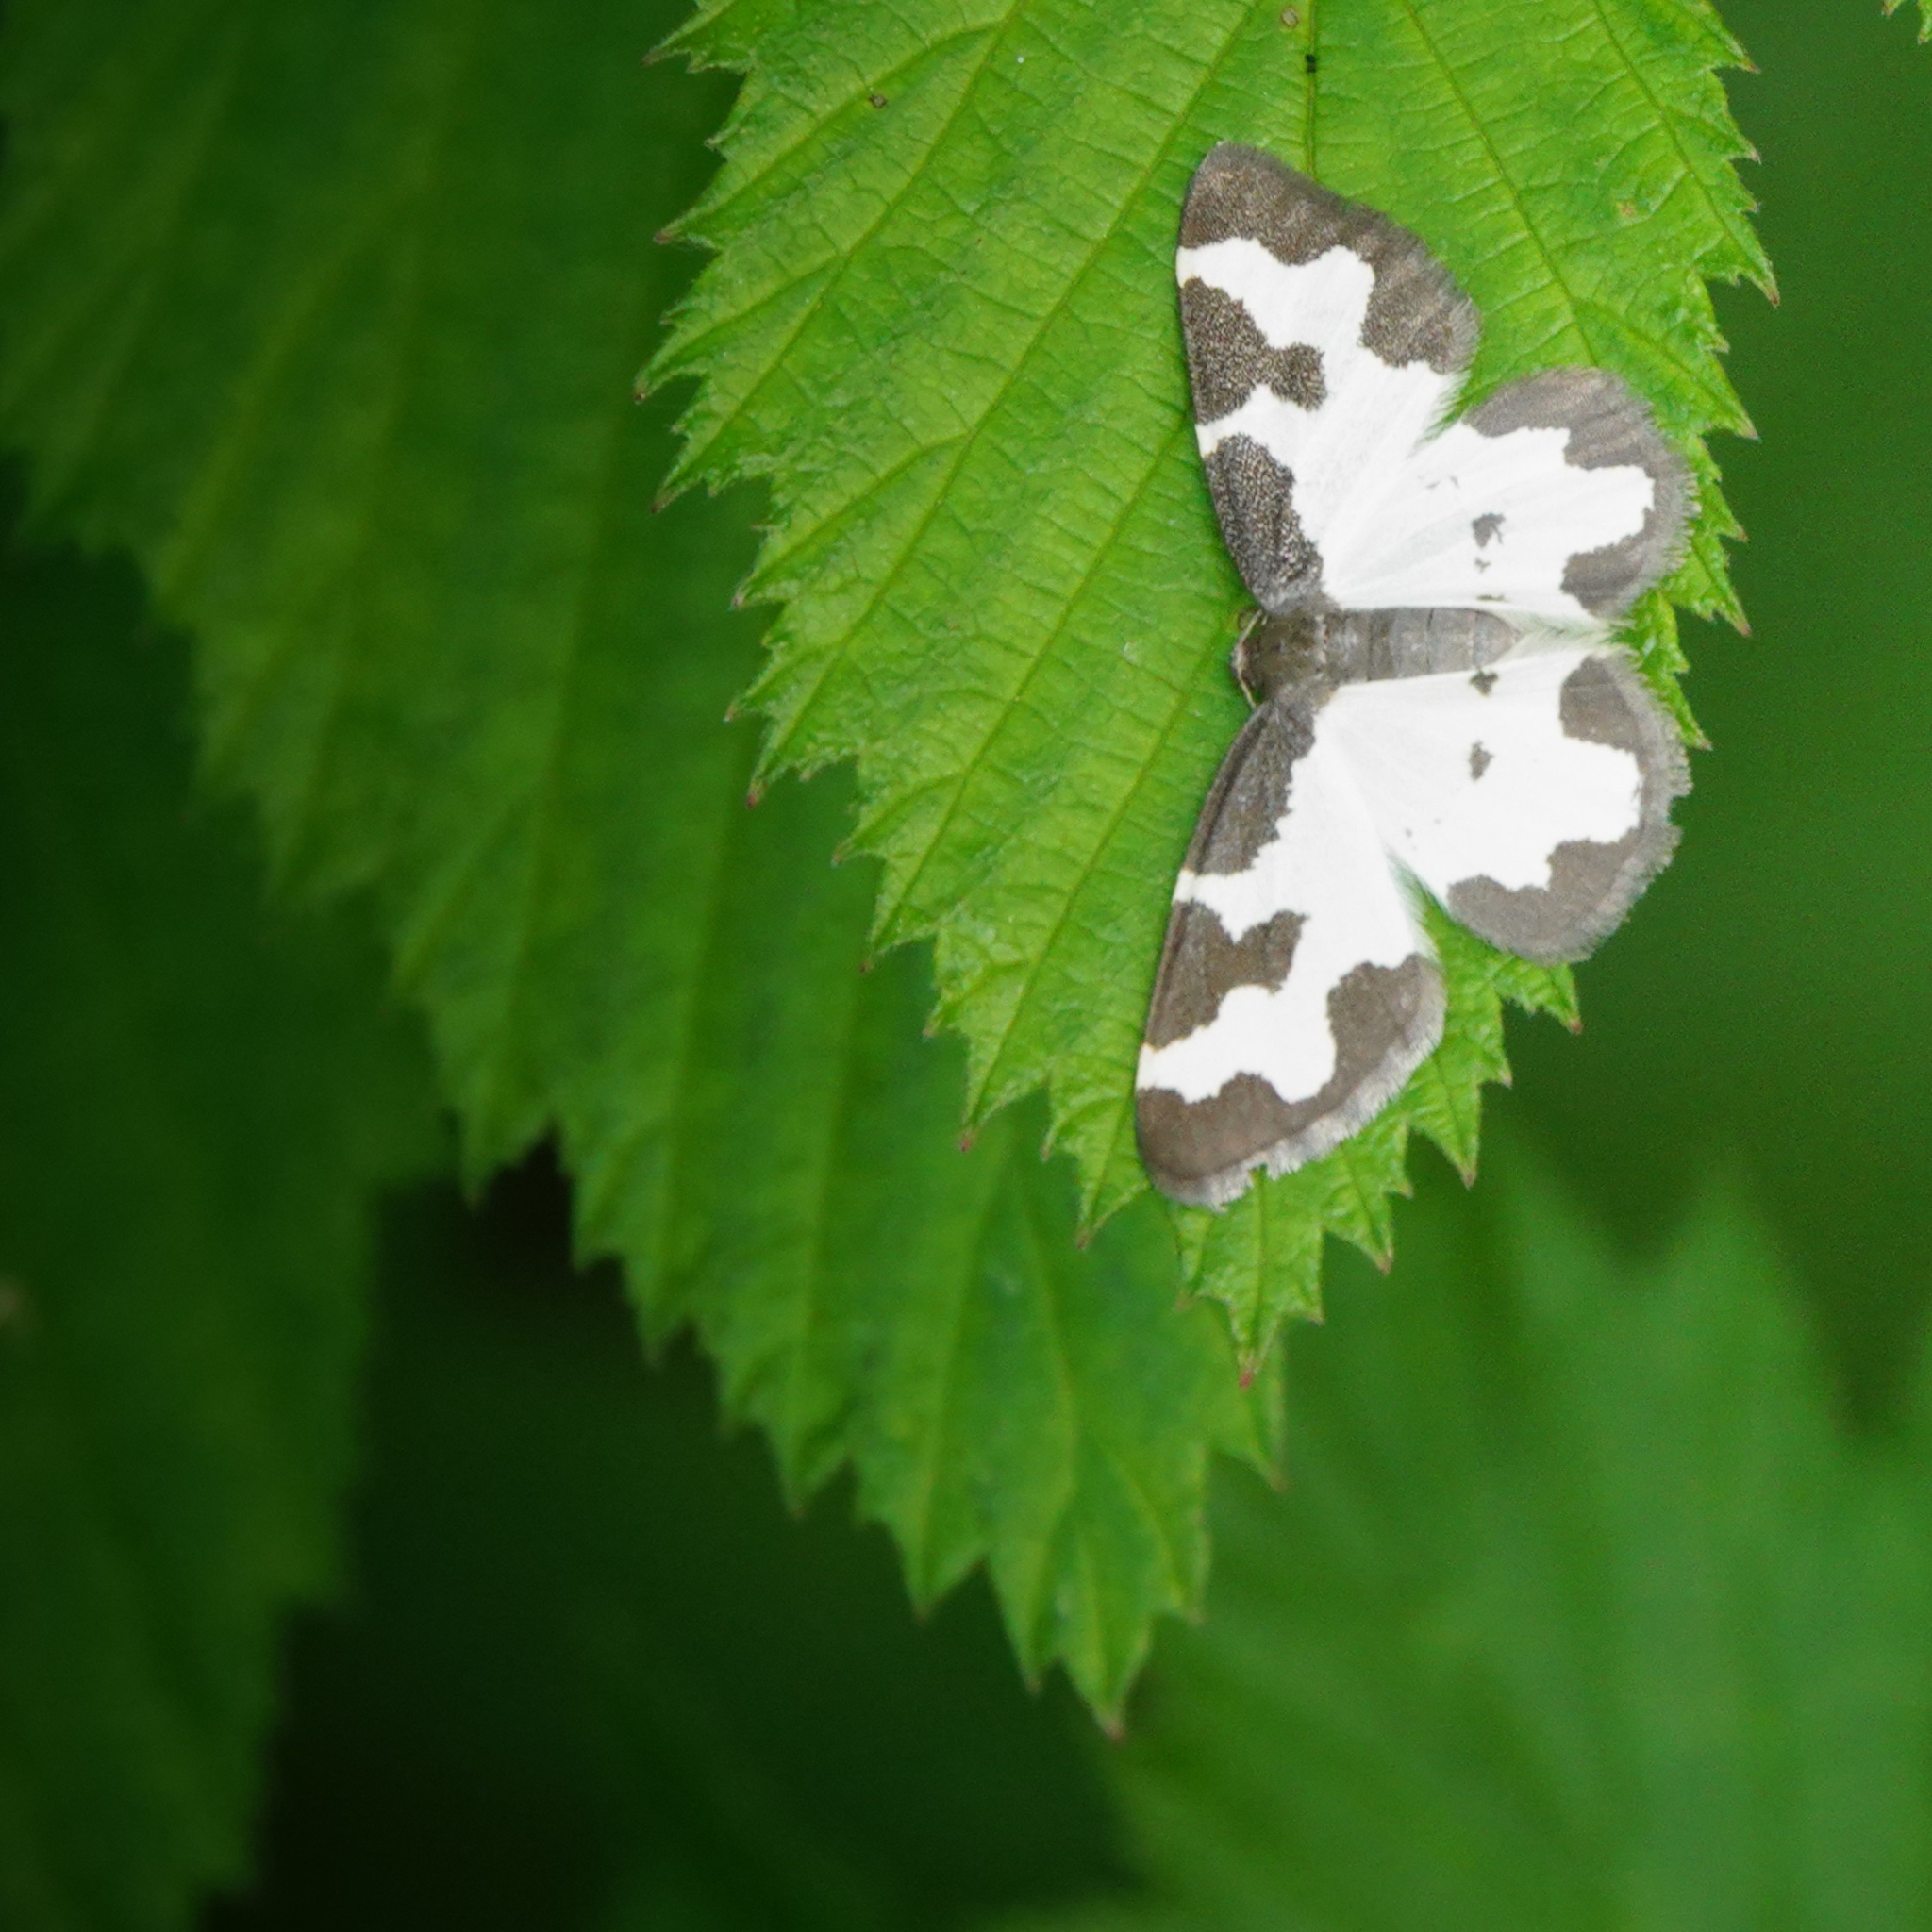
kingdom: Animalia
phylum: Arthropoda
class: Insecta
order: Lepidoptera
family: Geometridae
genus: Lomaspilis
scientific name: Lomaspilis marginata
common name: Clouded border
